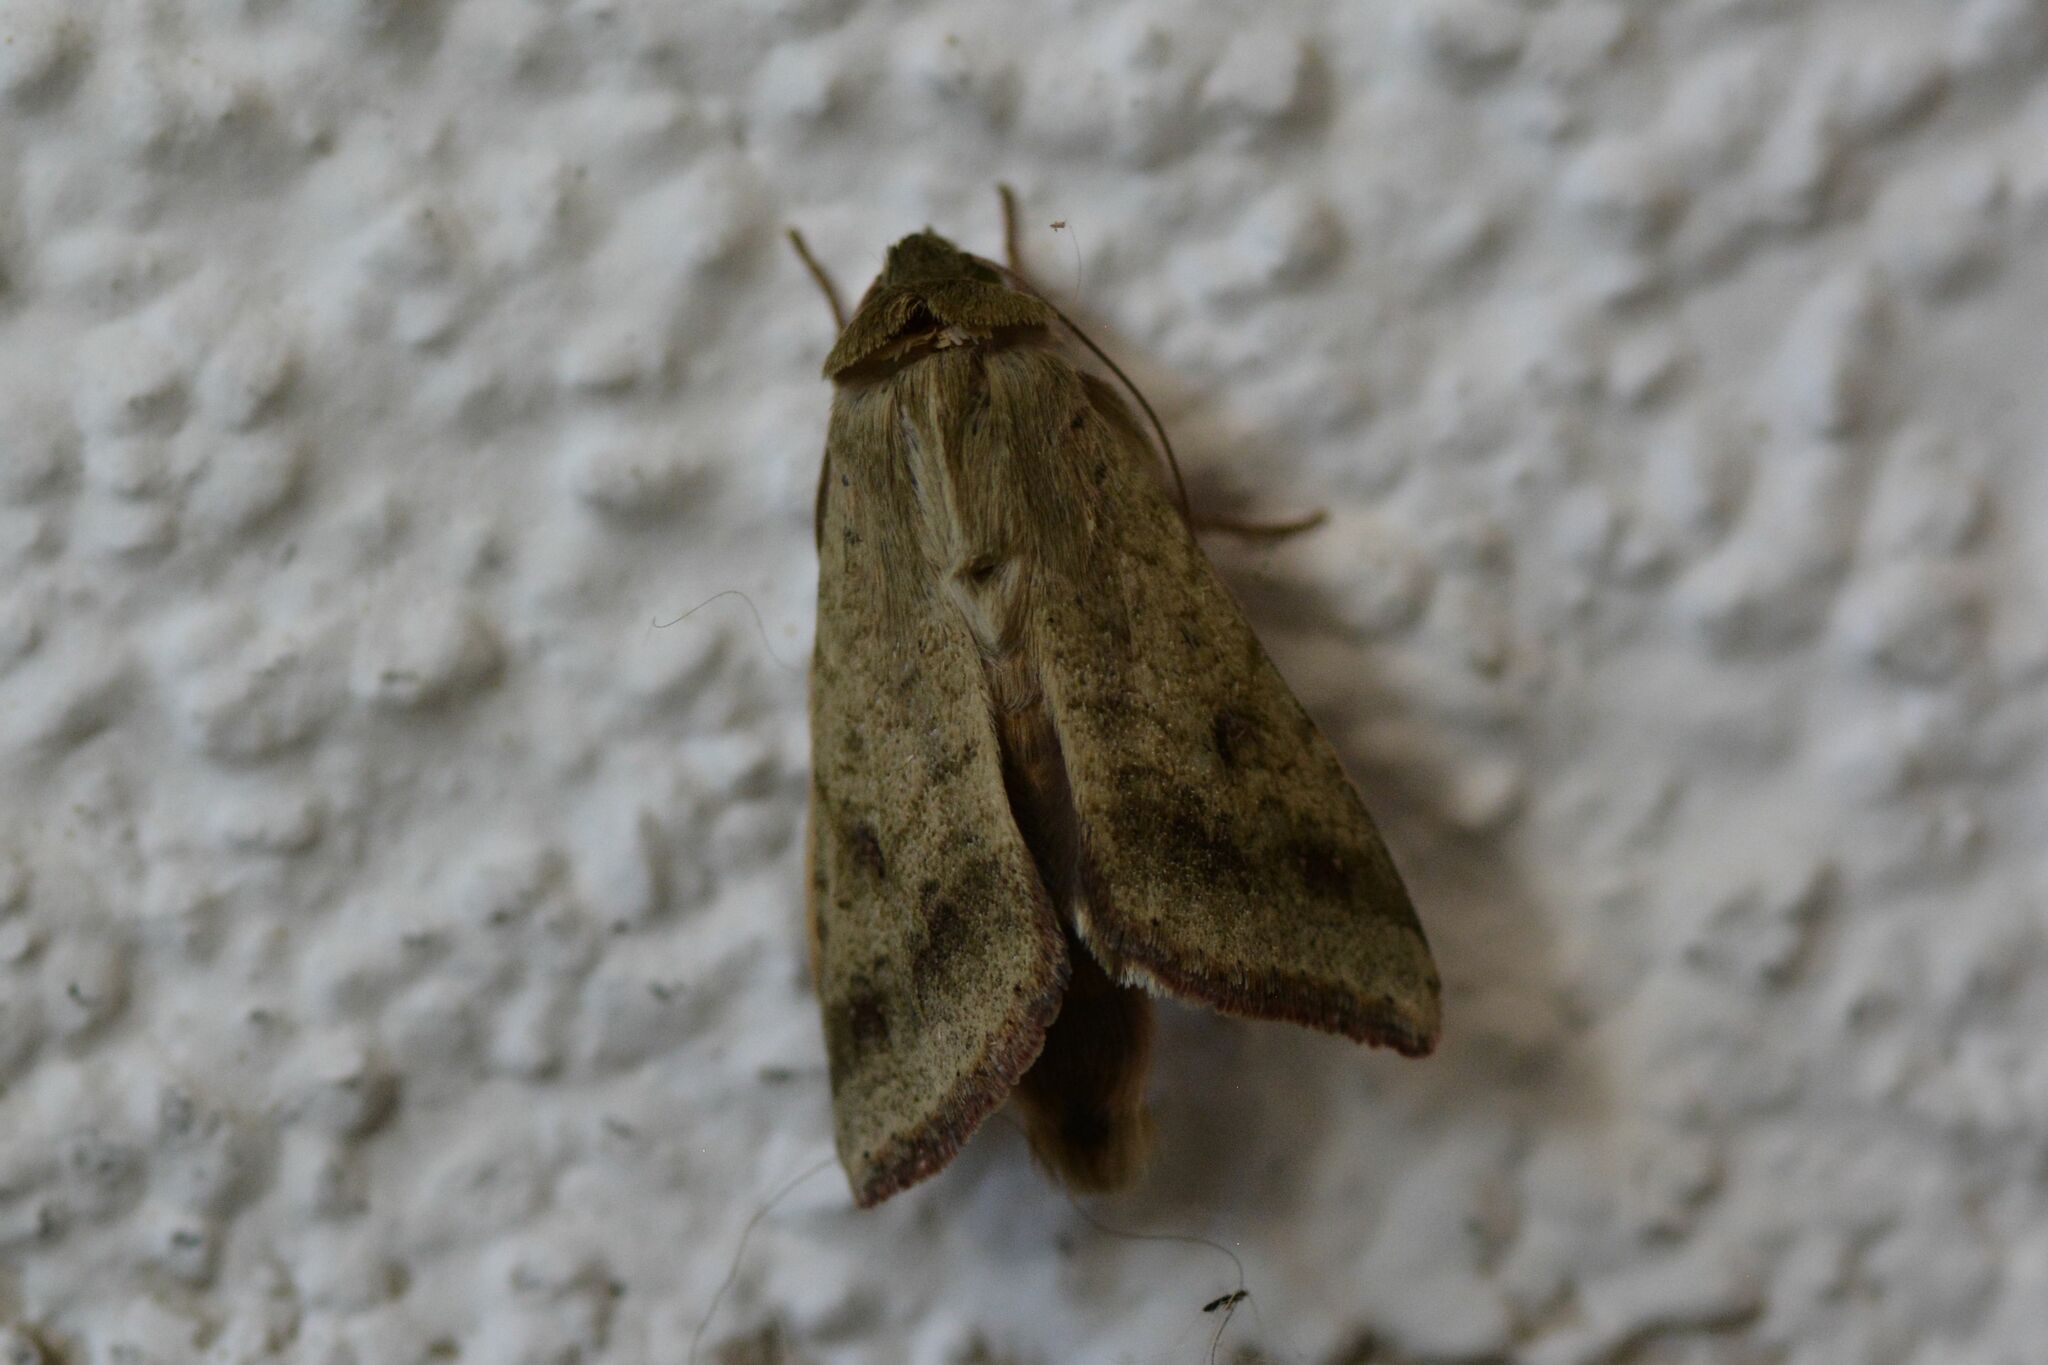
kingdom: Animalia
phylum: Arthropoda
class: Insecta
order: Lepidoptera
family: Noctuidae
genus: Helicoverpa
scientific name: Helicoverpa armigera
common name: Cotton bollworm
